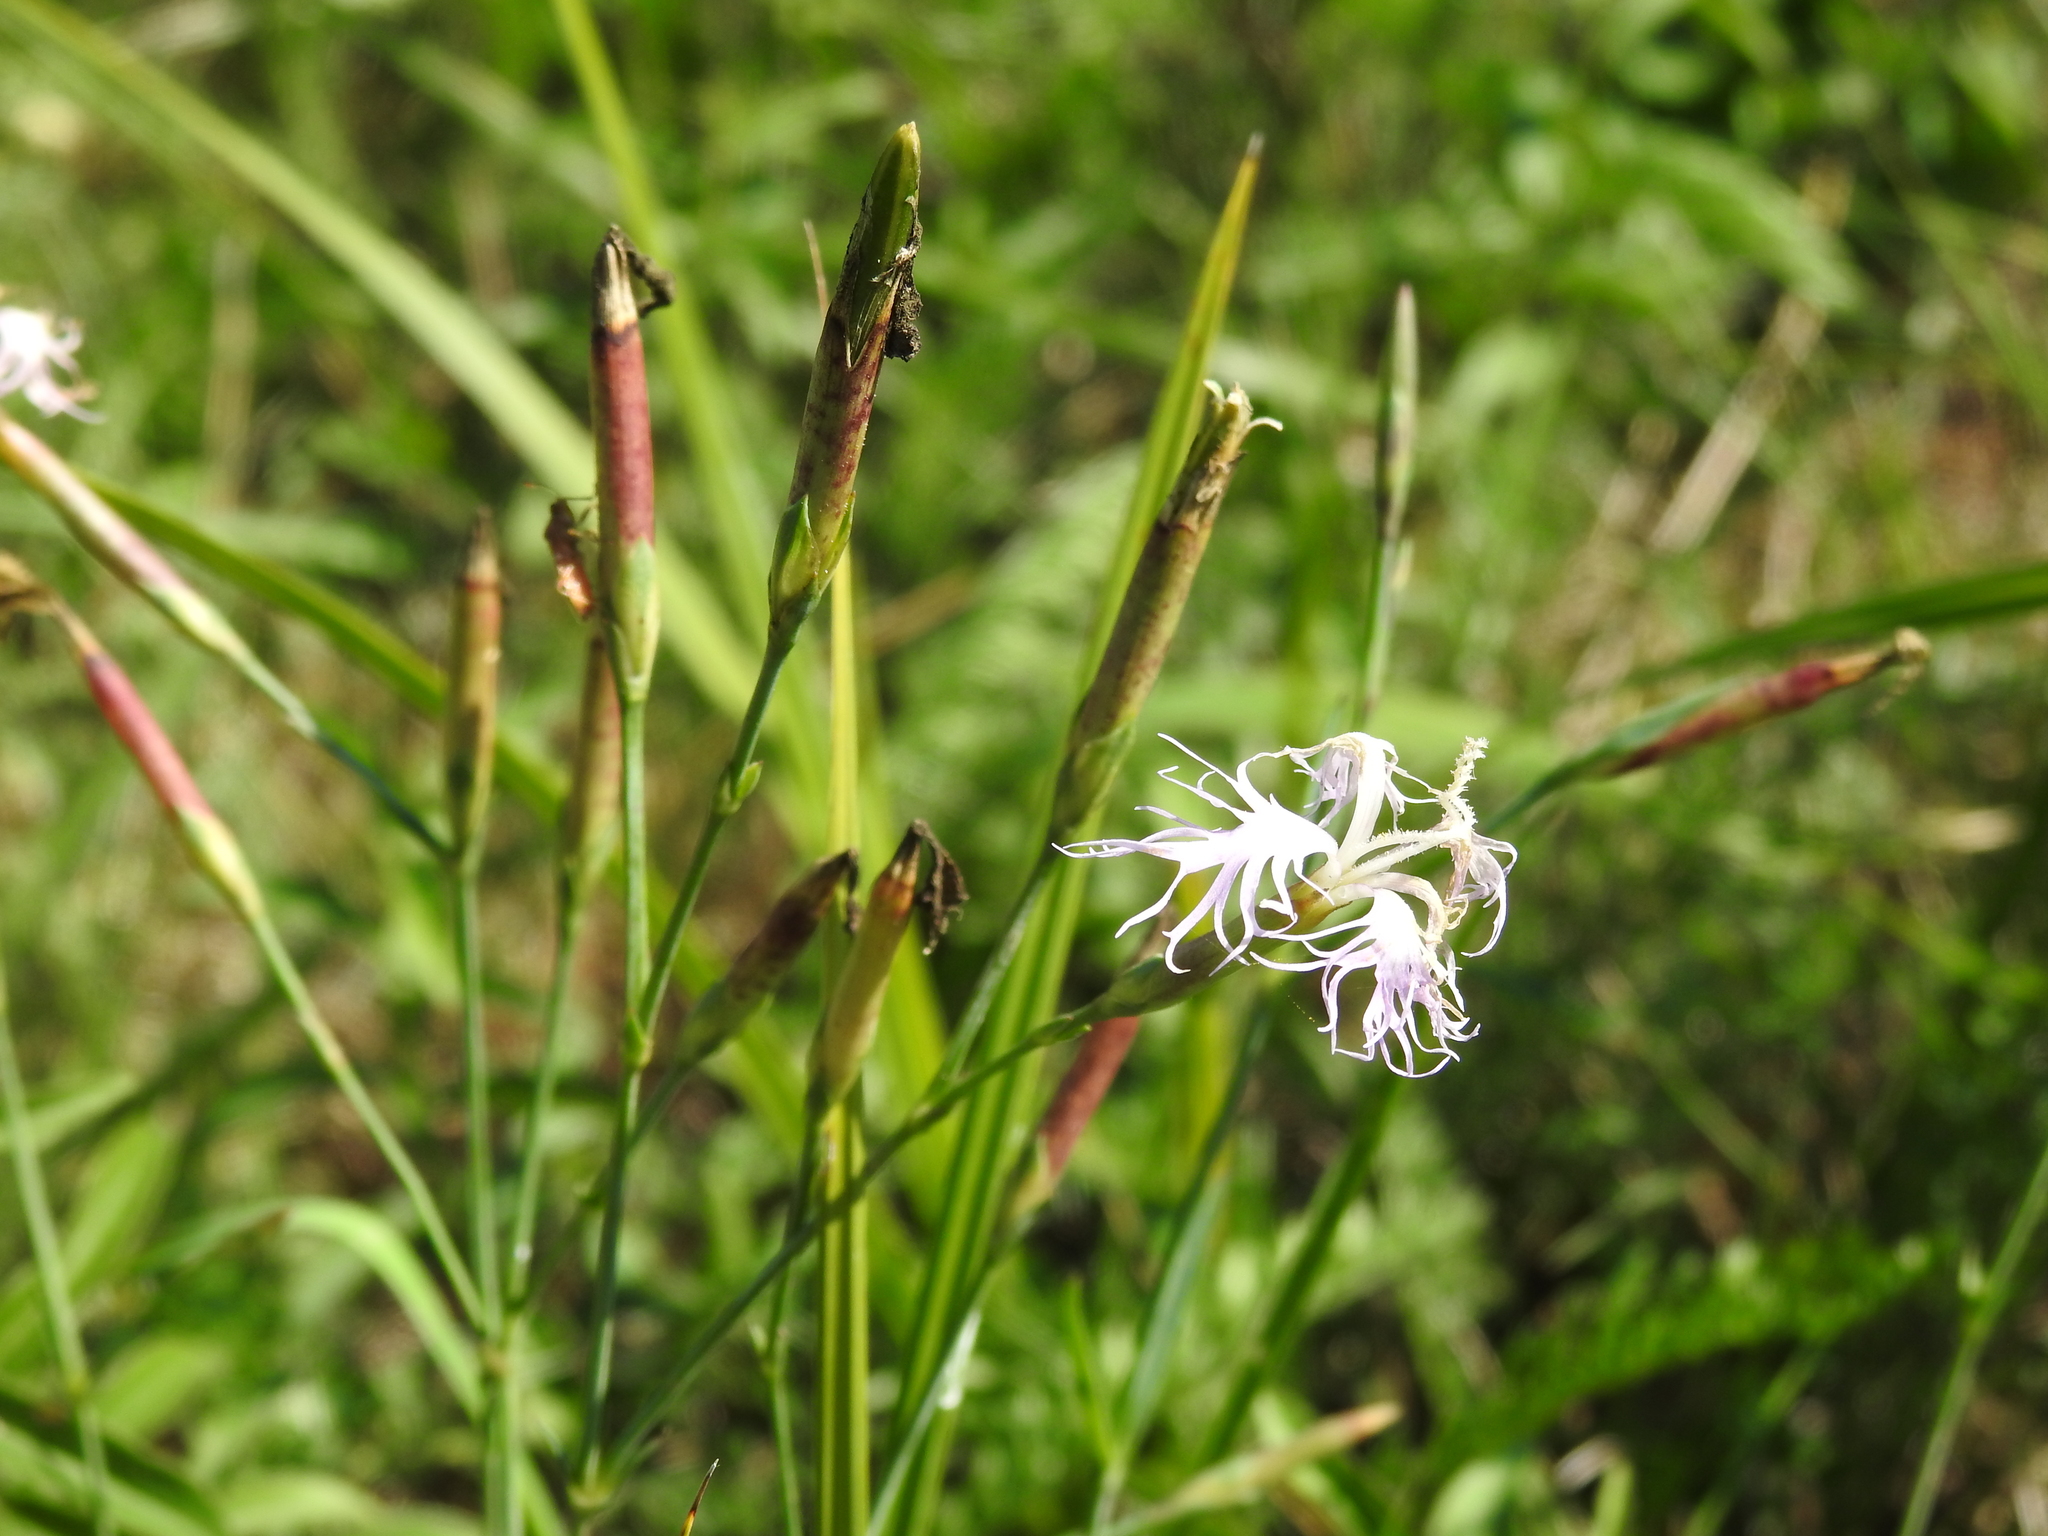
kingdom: Plantae
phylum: Tracheophyta
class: Magnoliopsida
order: Caryophyllales
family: Caryophyllaceae
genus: Dianthus
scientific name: Dianthus superbus
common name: Fringed pink
